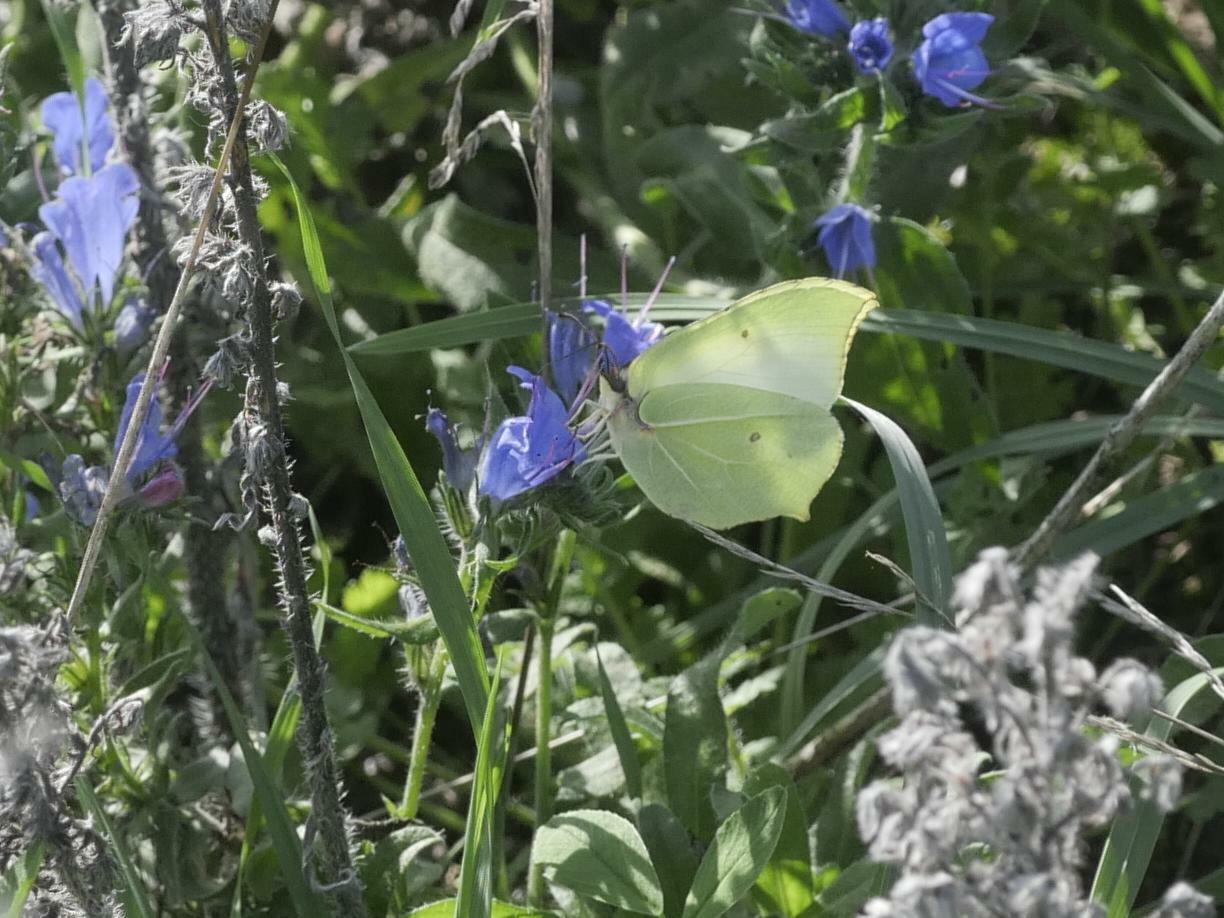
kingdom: Animalia
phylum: Arthropoda
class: Insecta
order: Lepidoptera
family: Pieridae
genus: Gonepteryx
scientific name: Gonepteryx rhamni
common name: Brimstone
